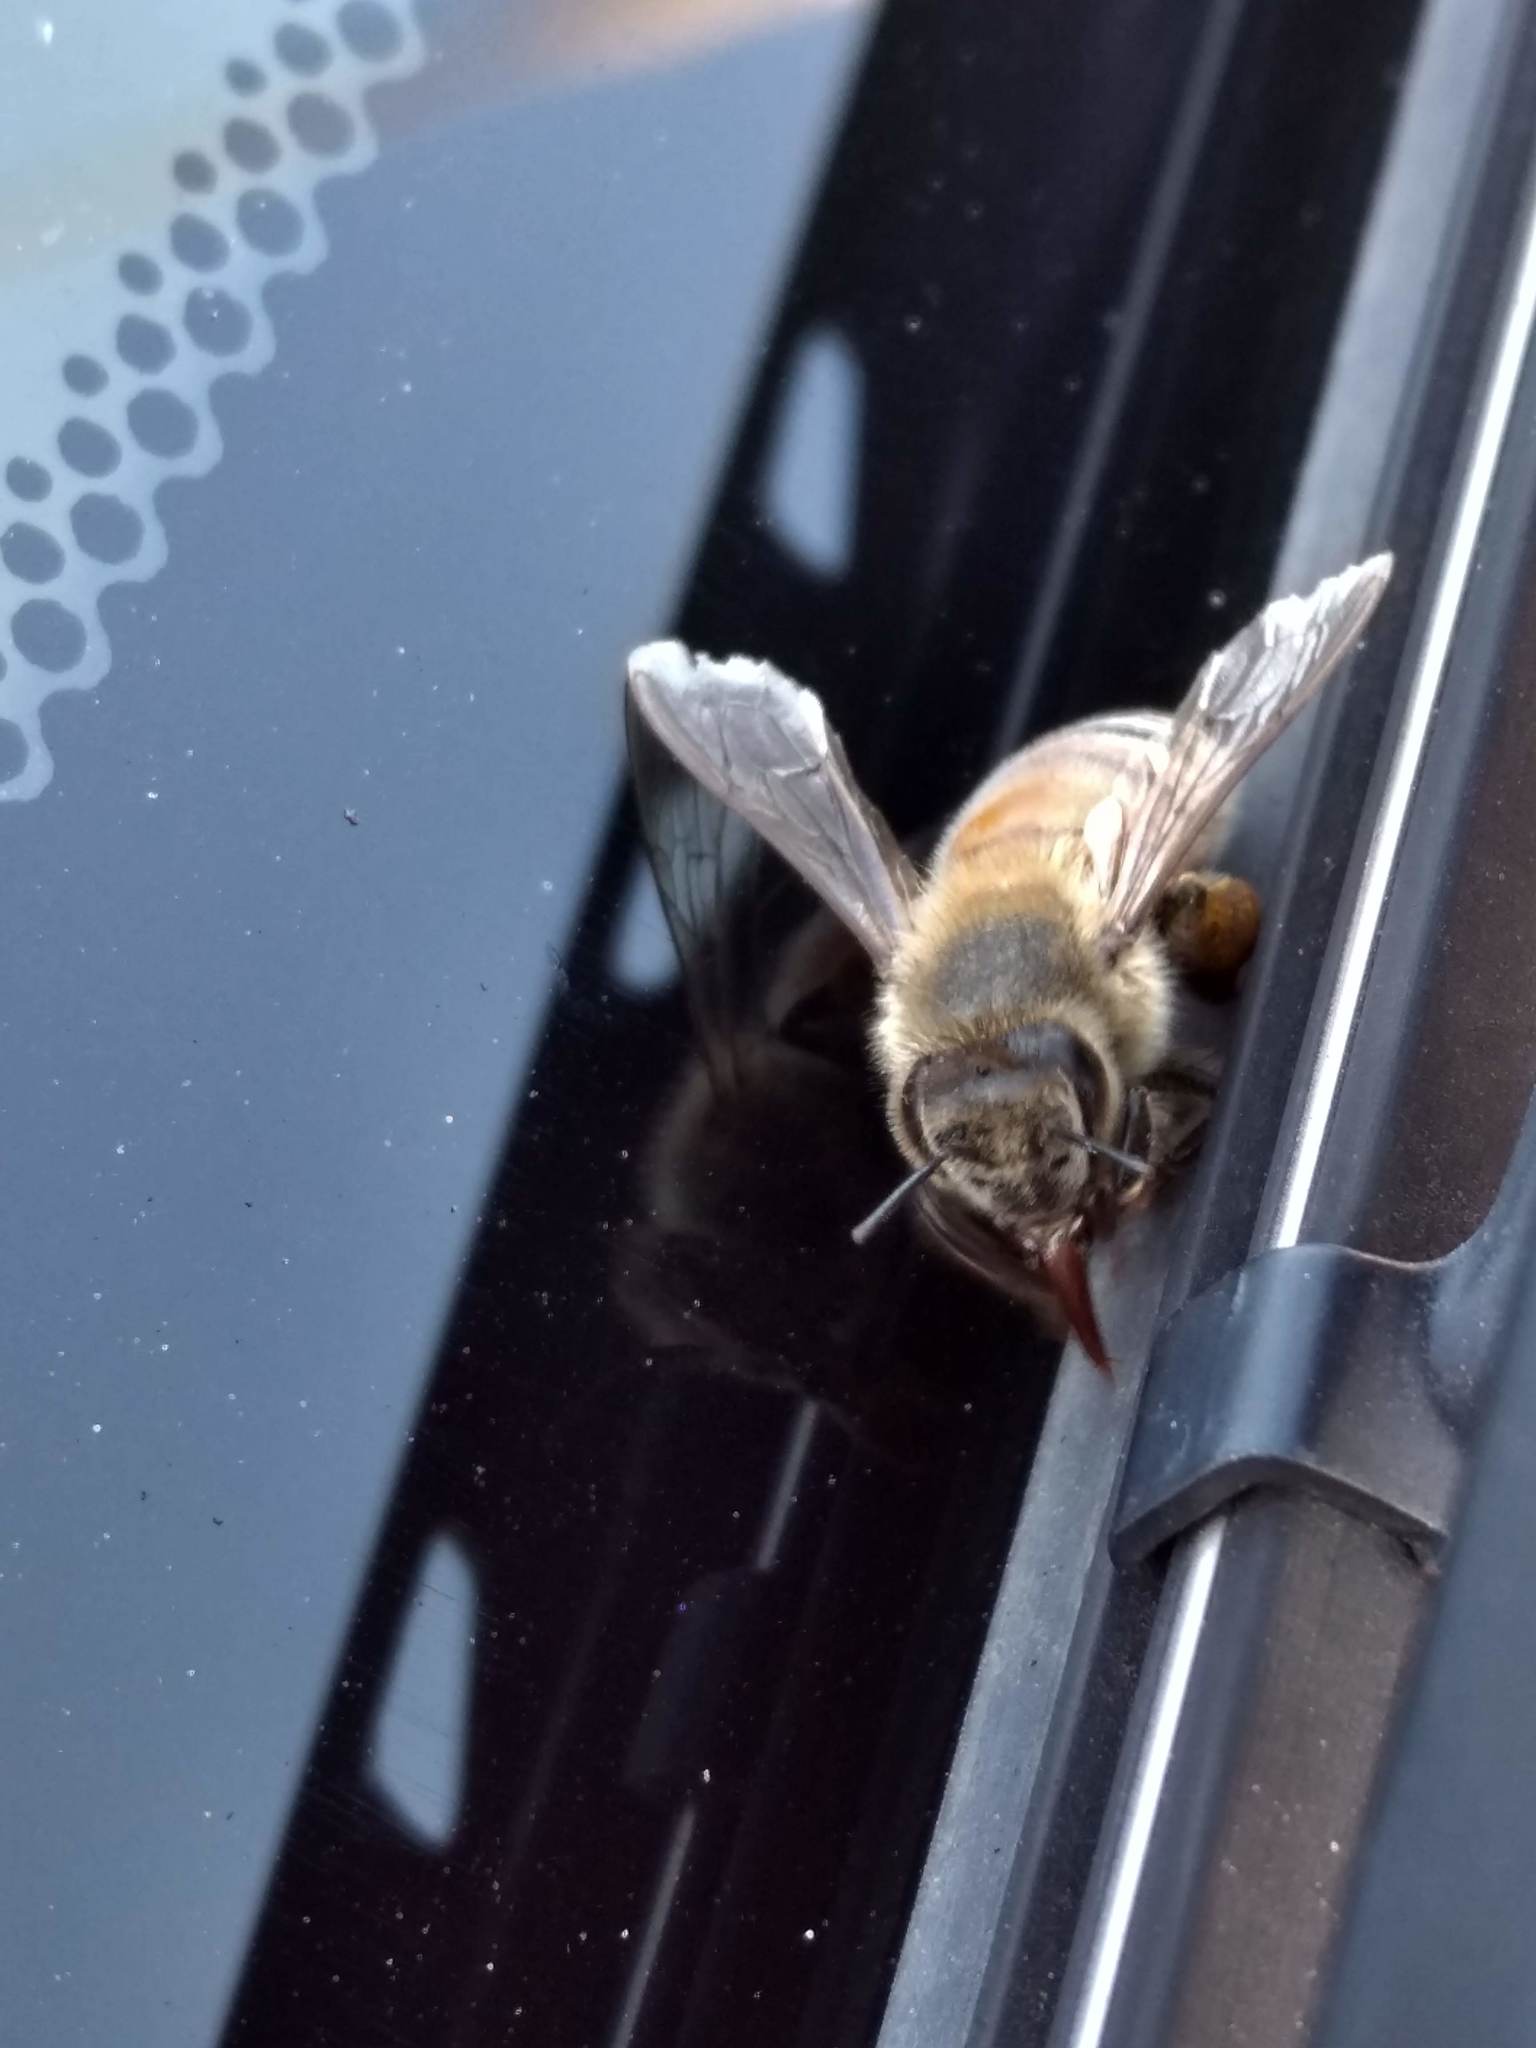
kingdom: Animalia
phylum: Arthropoda
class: Insecta
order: Hymenoptera
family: Apidae
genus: Apis
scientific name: Apis mellifera
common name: Honey bee
